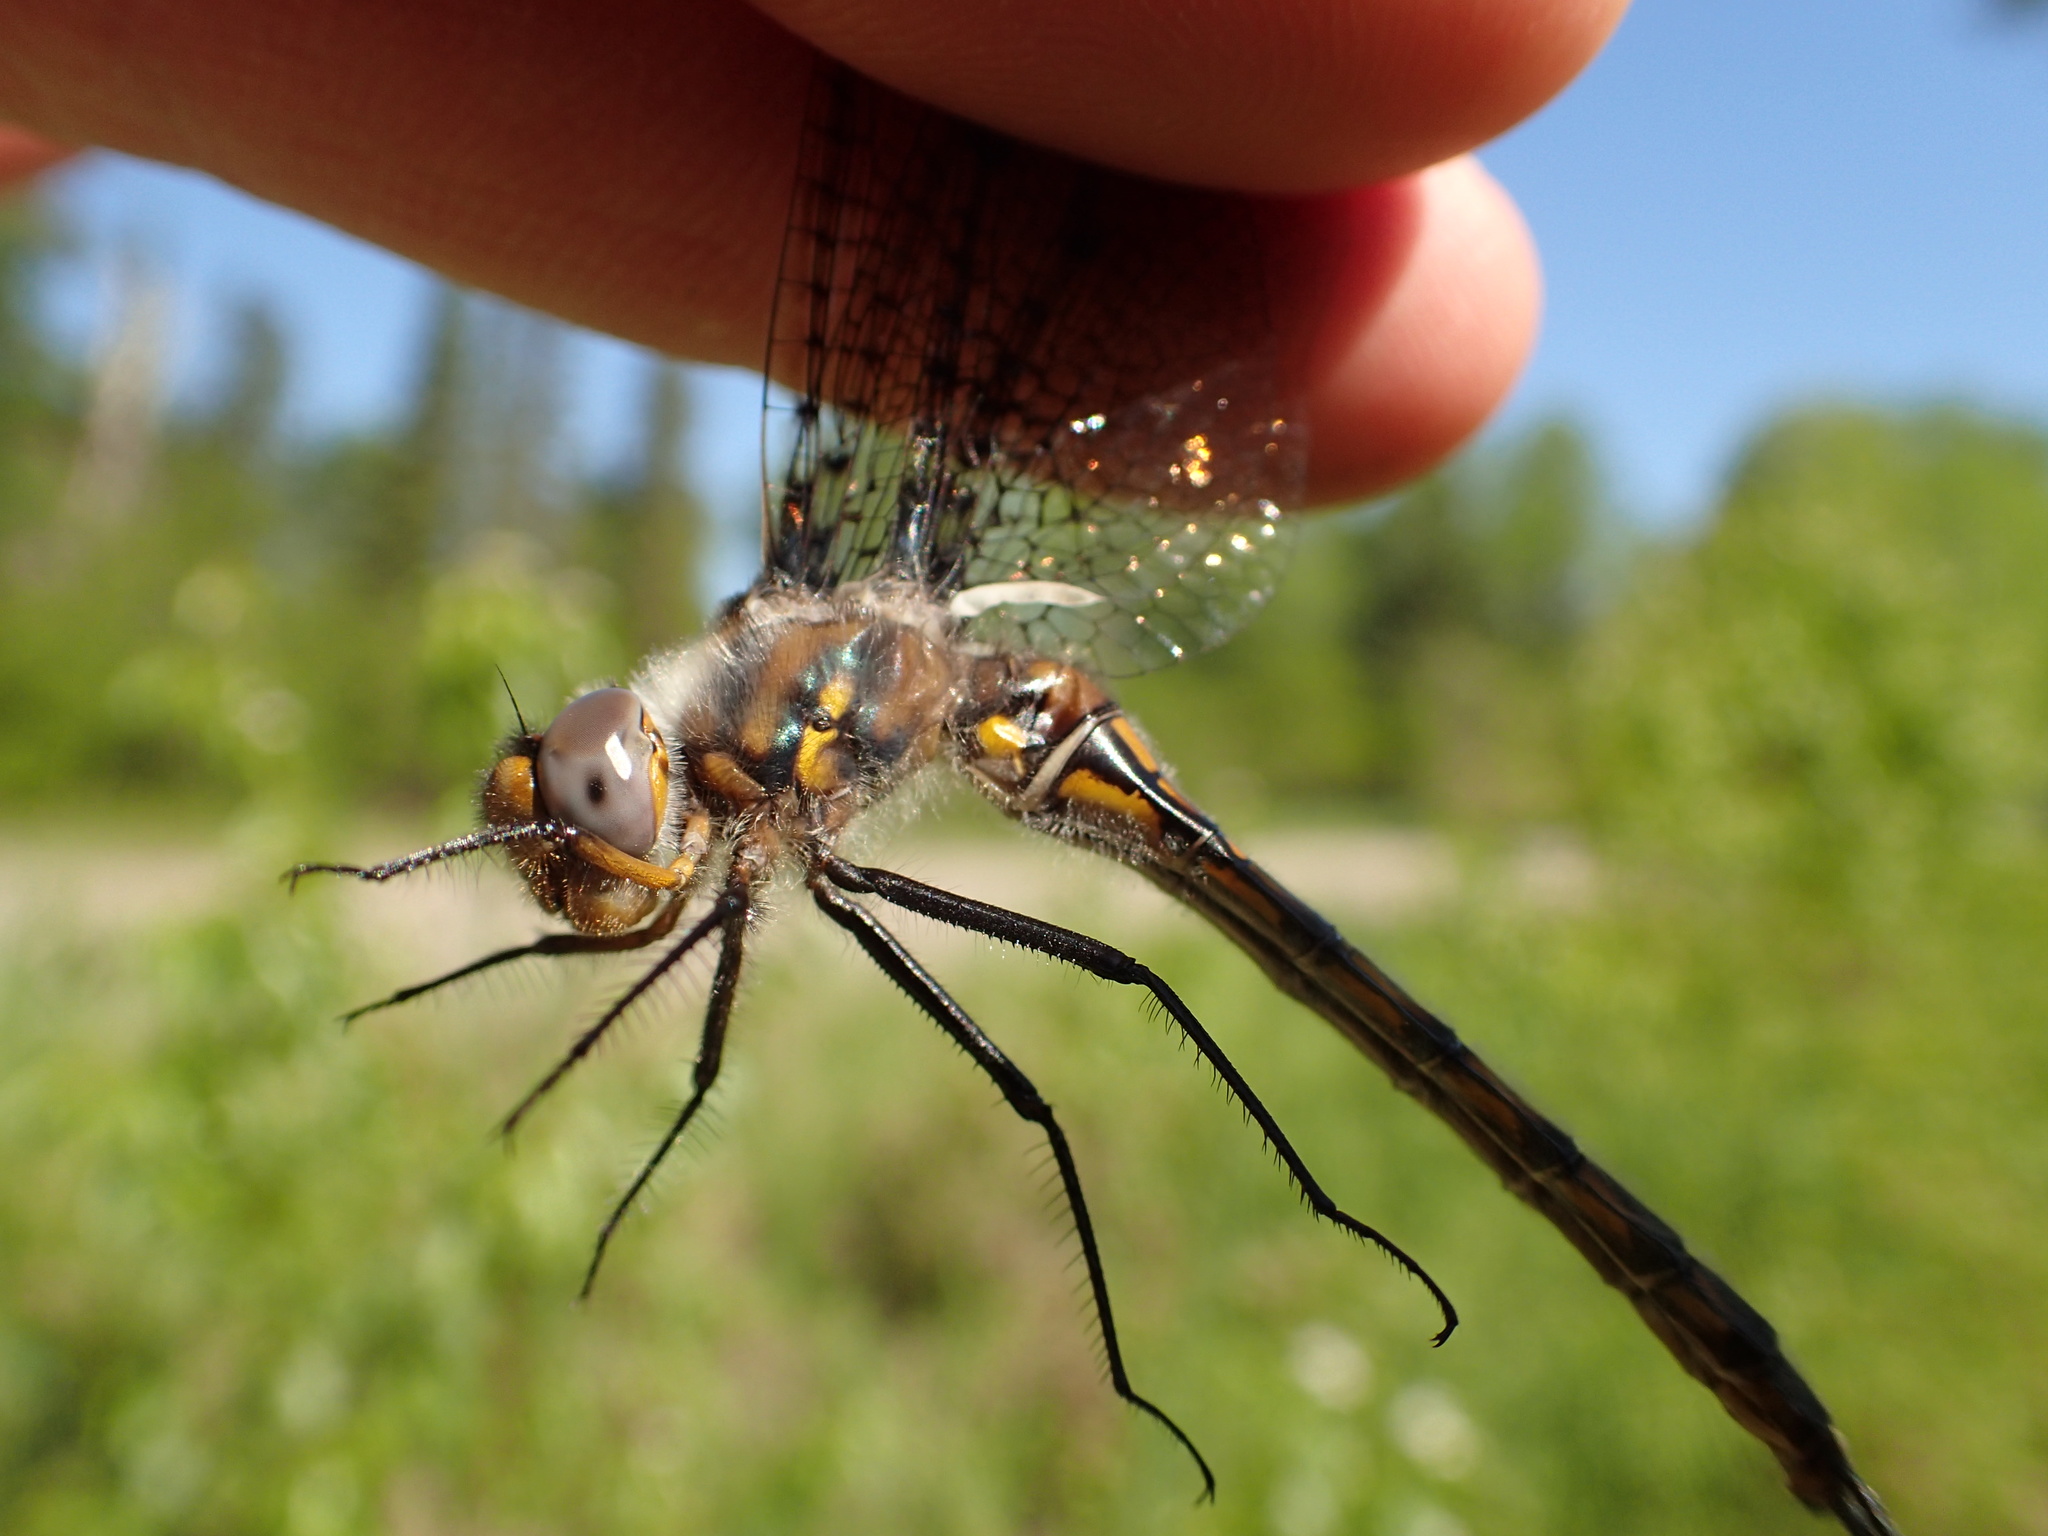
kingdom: Animalia
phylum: Arthropoda
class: Insecta
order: Odonata
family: Corduliidae
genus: Epitheca
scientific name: Epitheca spinigera
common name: Spiny baskettail
